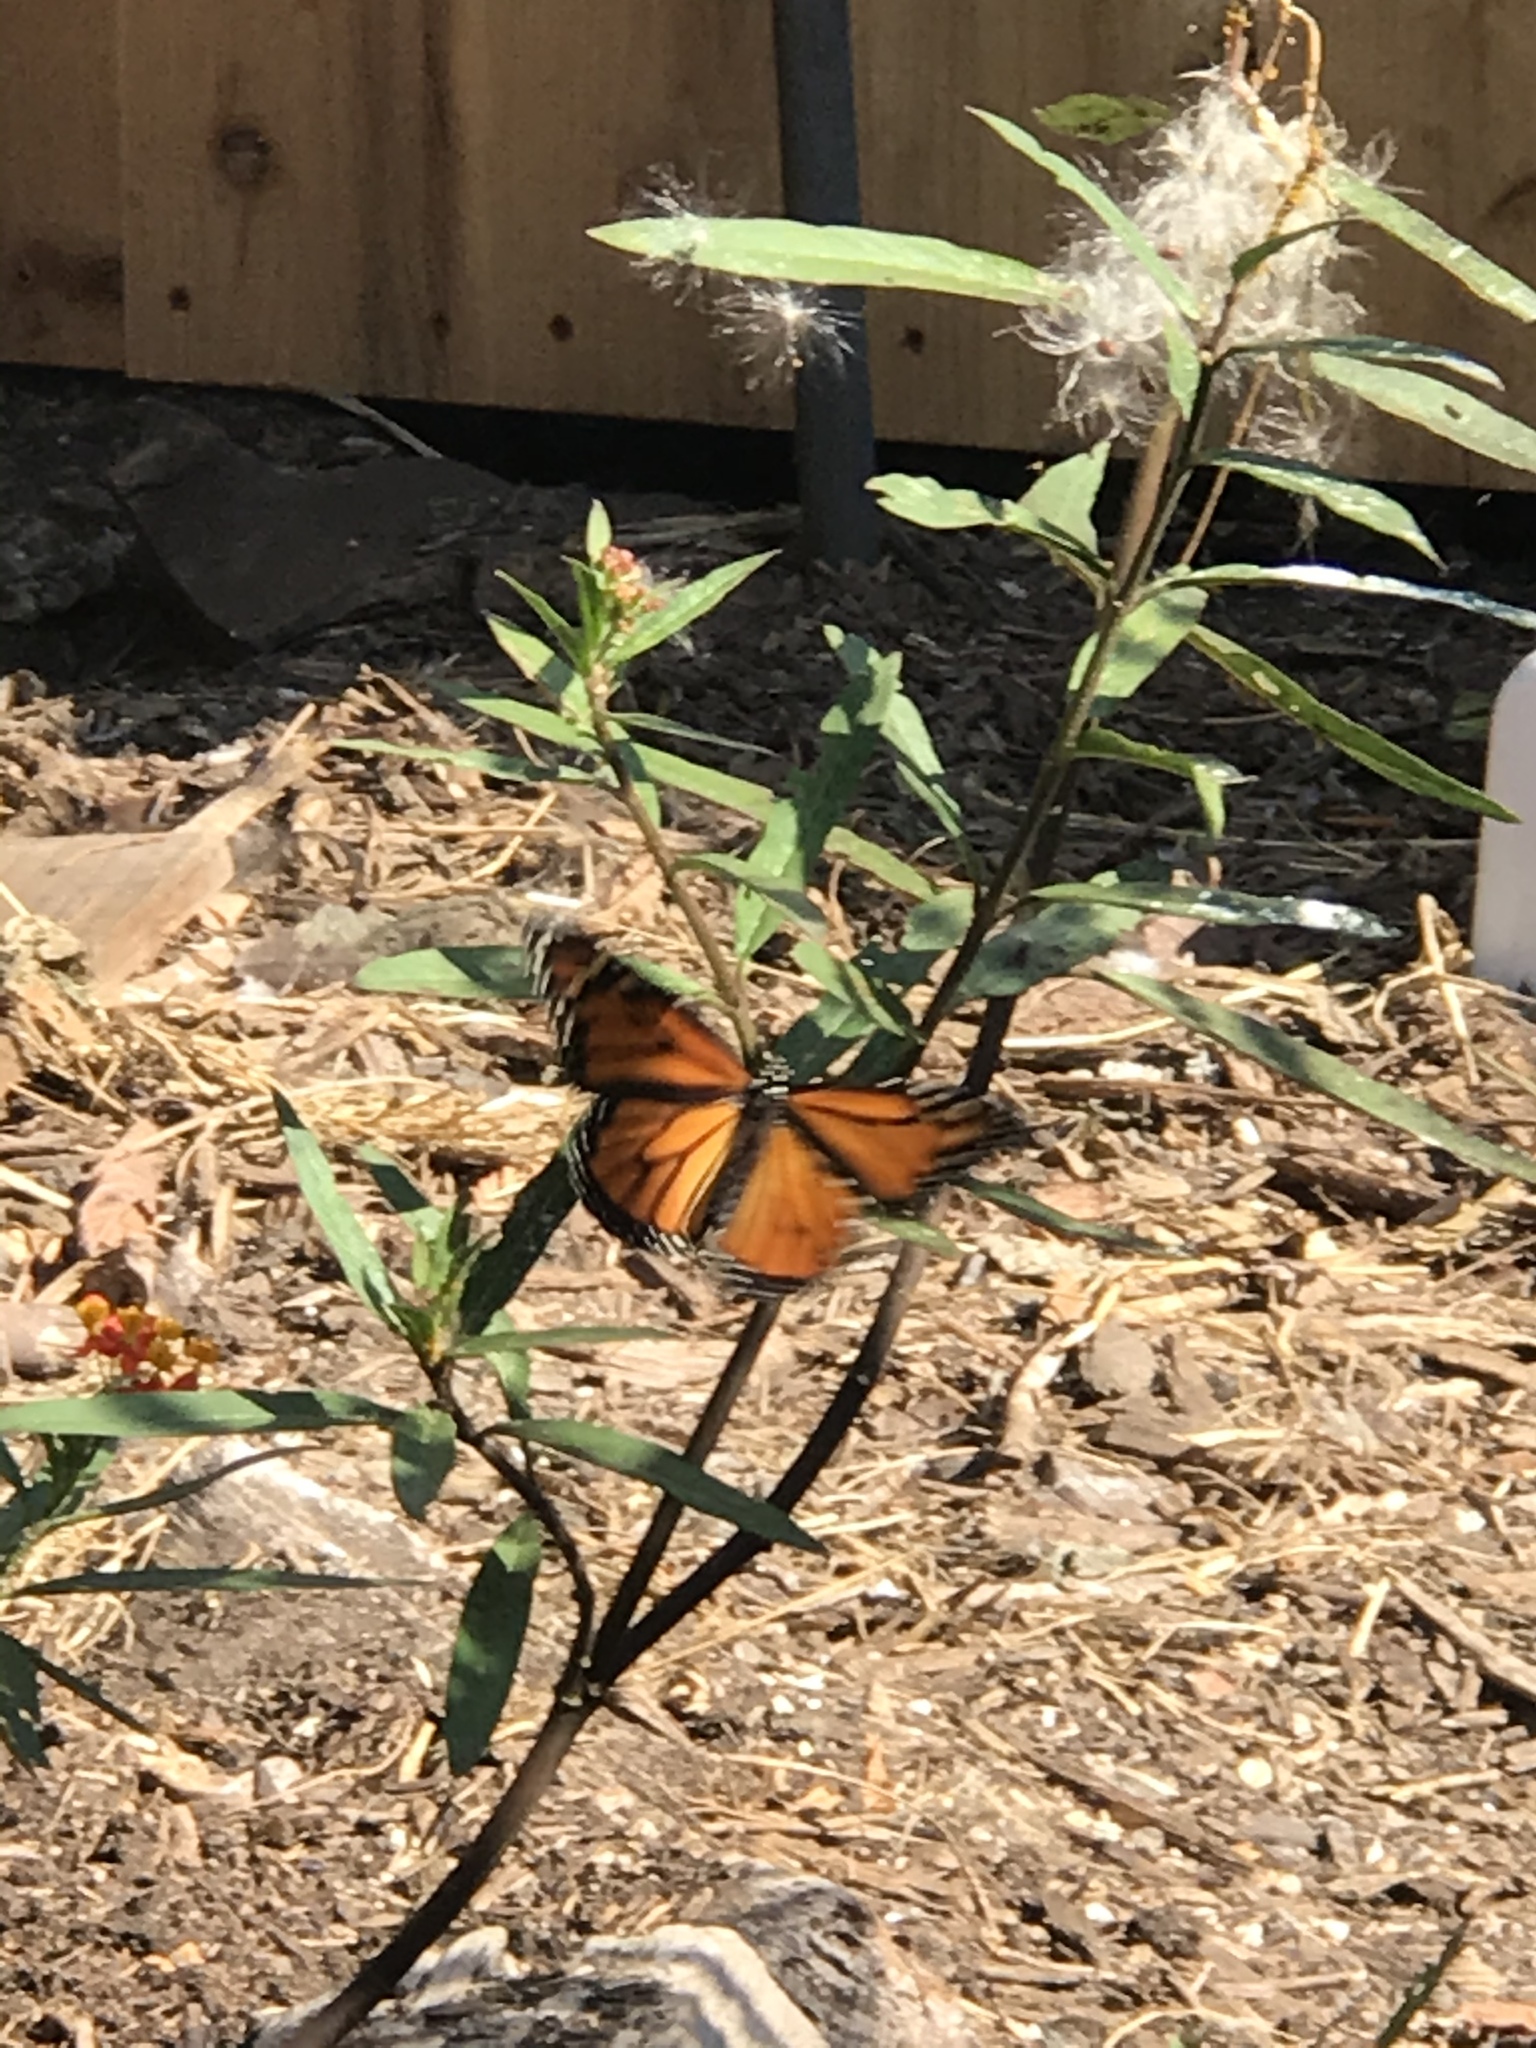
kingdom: Animalia
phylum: Arthropoda
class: Insecta
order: Lepidoptera
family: Nymphalidae
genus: Danaus
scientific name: Danaus plexippus
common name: Monarch
